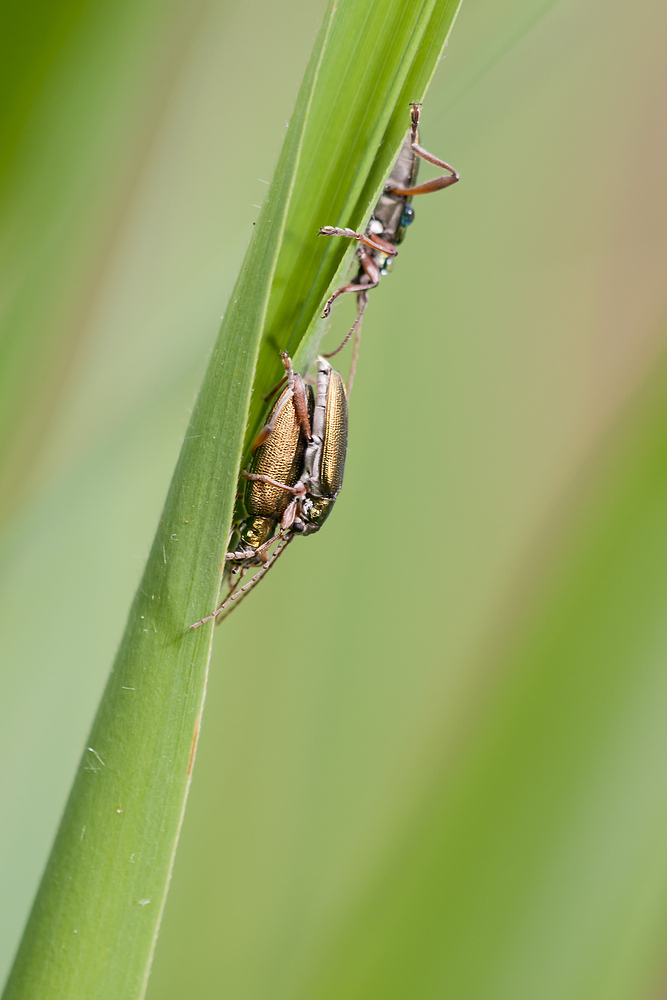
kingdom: Animalia
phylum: Arthropoda
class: Insecta
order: Coleoptera
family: Chrysomelidae
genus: Donacia
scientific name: Donacia clavipes
